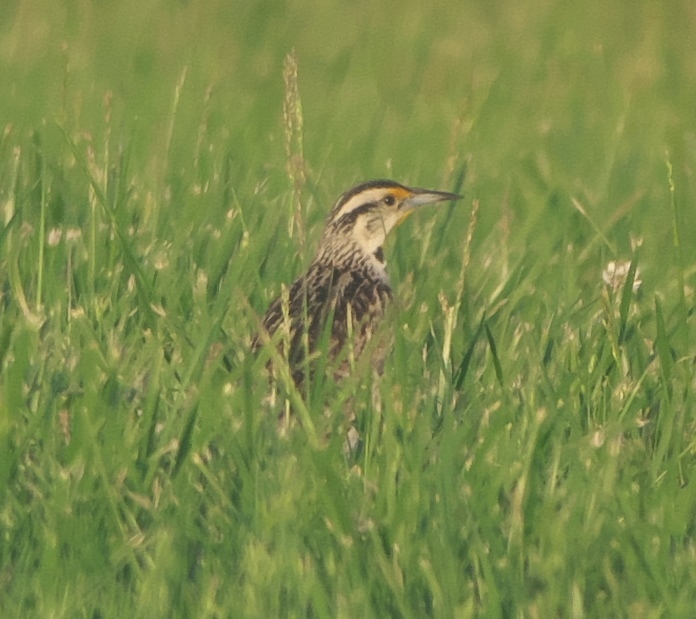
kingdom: Animalia
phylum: Chordata
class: Aves
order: Passeriformes
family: Icteridae
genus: Sturnella
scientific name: Sturnella magna
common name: Eastern meadowlark
